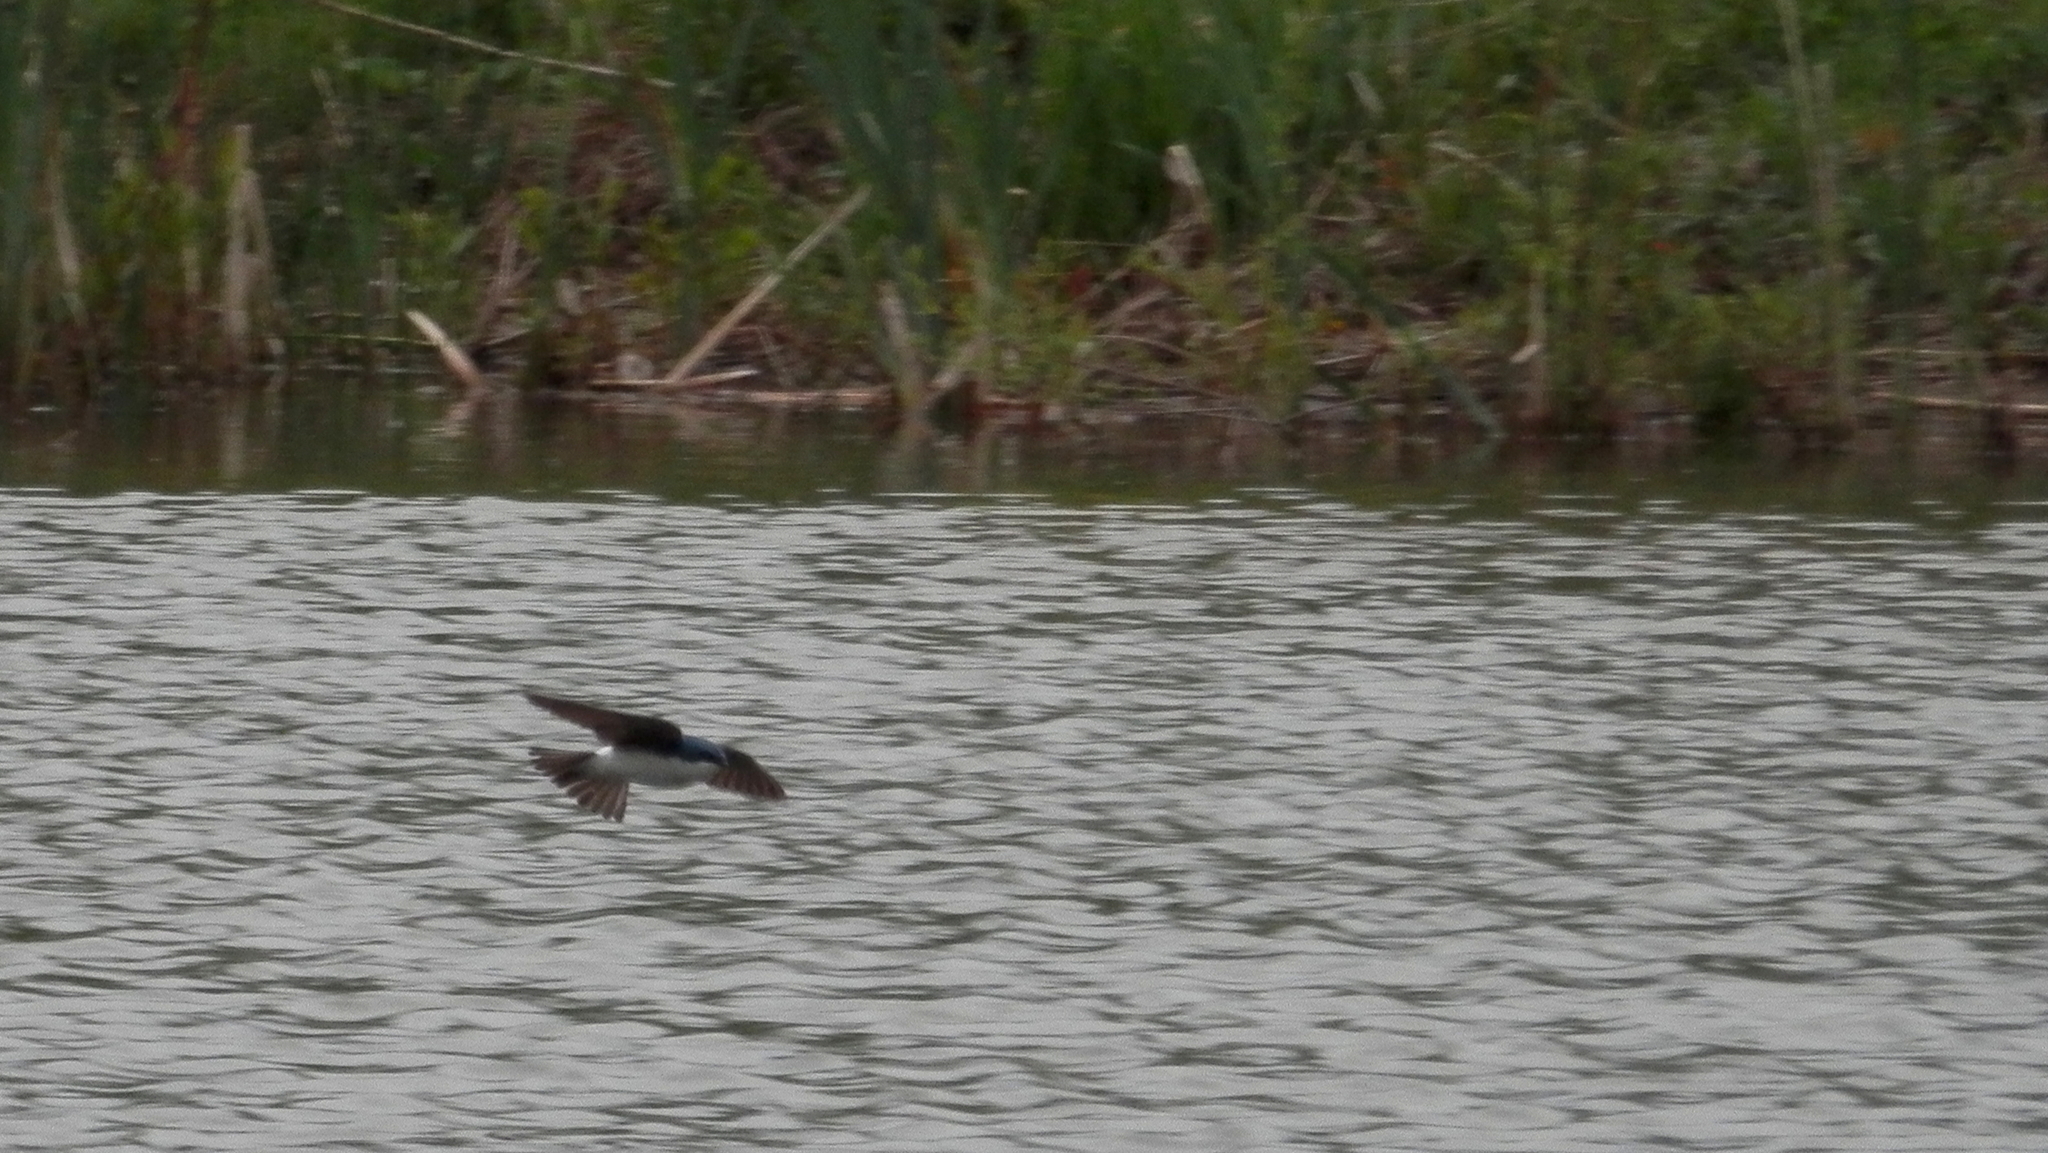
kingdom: Animalia
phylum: Chordata
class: Aves
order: Passeriformes
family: Hirundinidae
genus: Tachycineta
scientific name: Tachycineta bicolor
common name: Tree swallow
